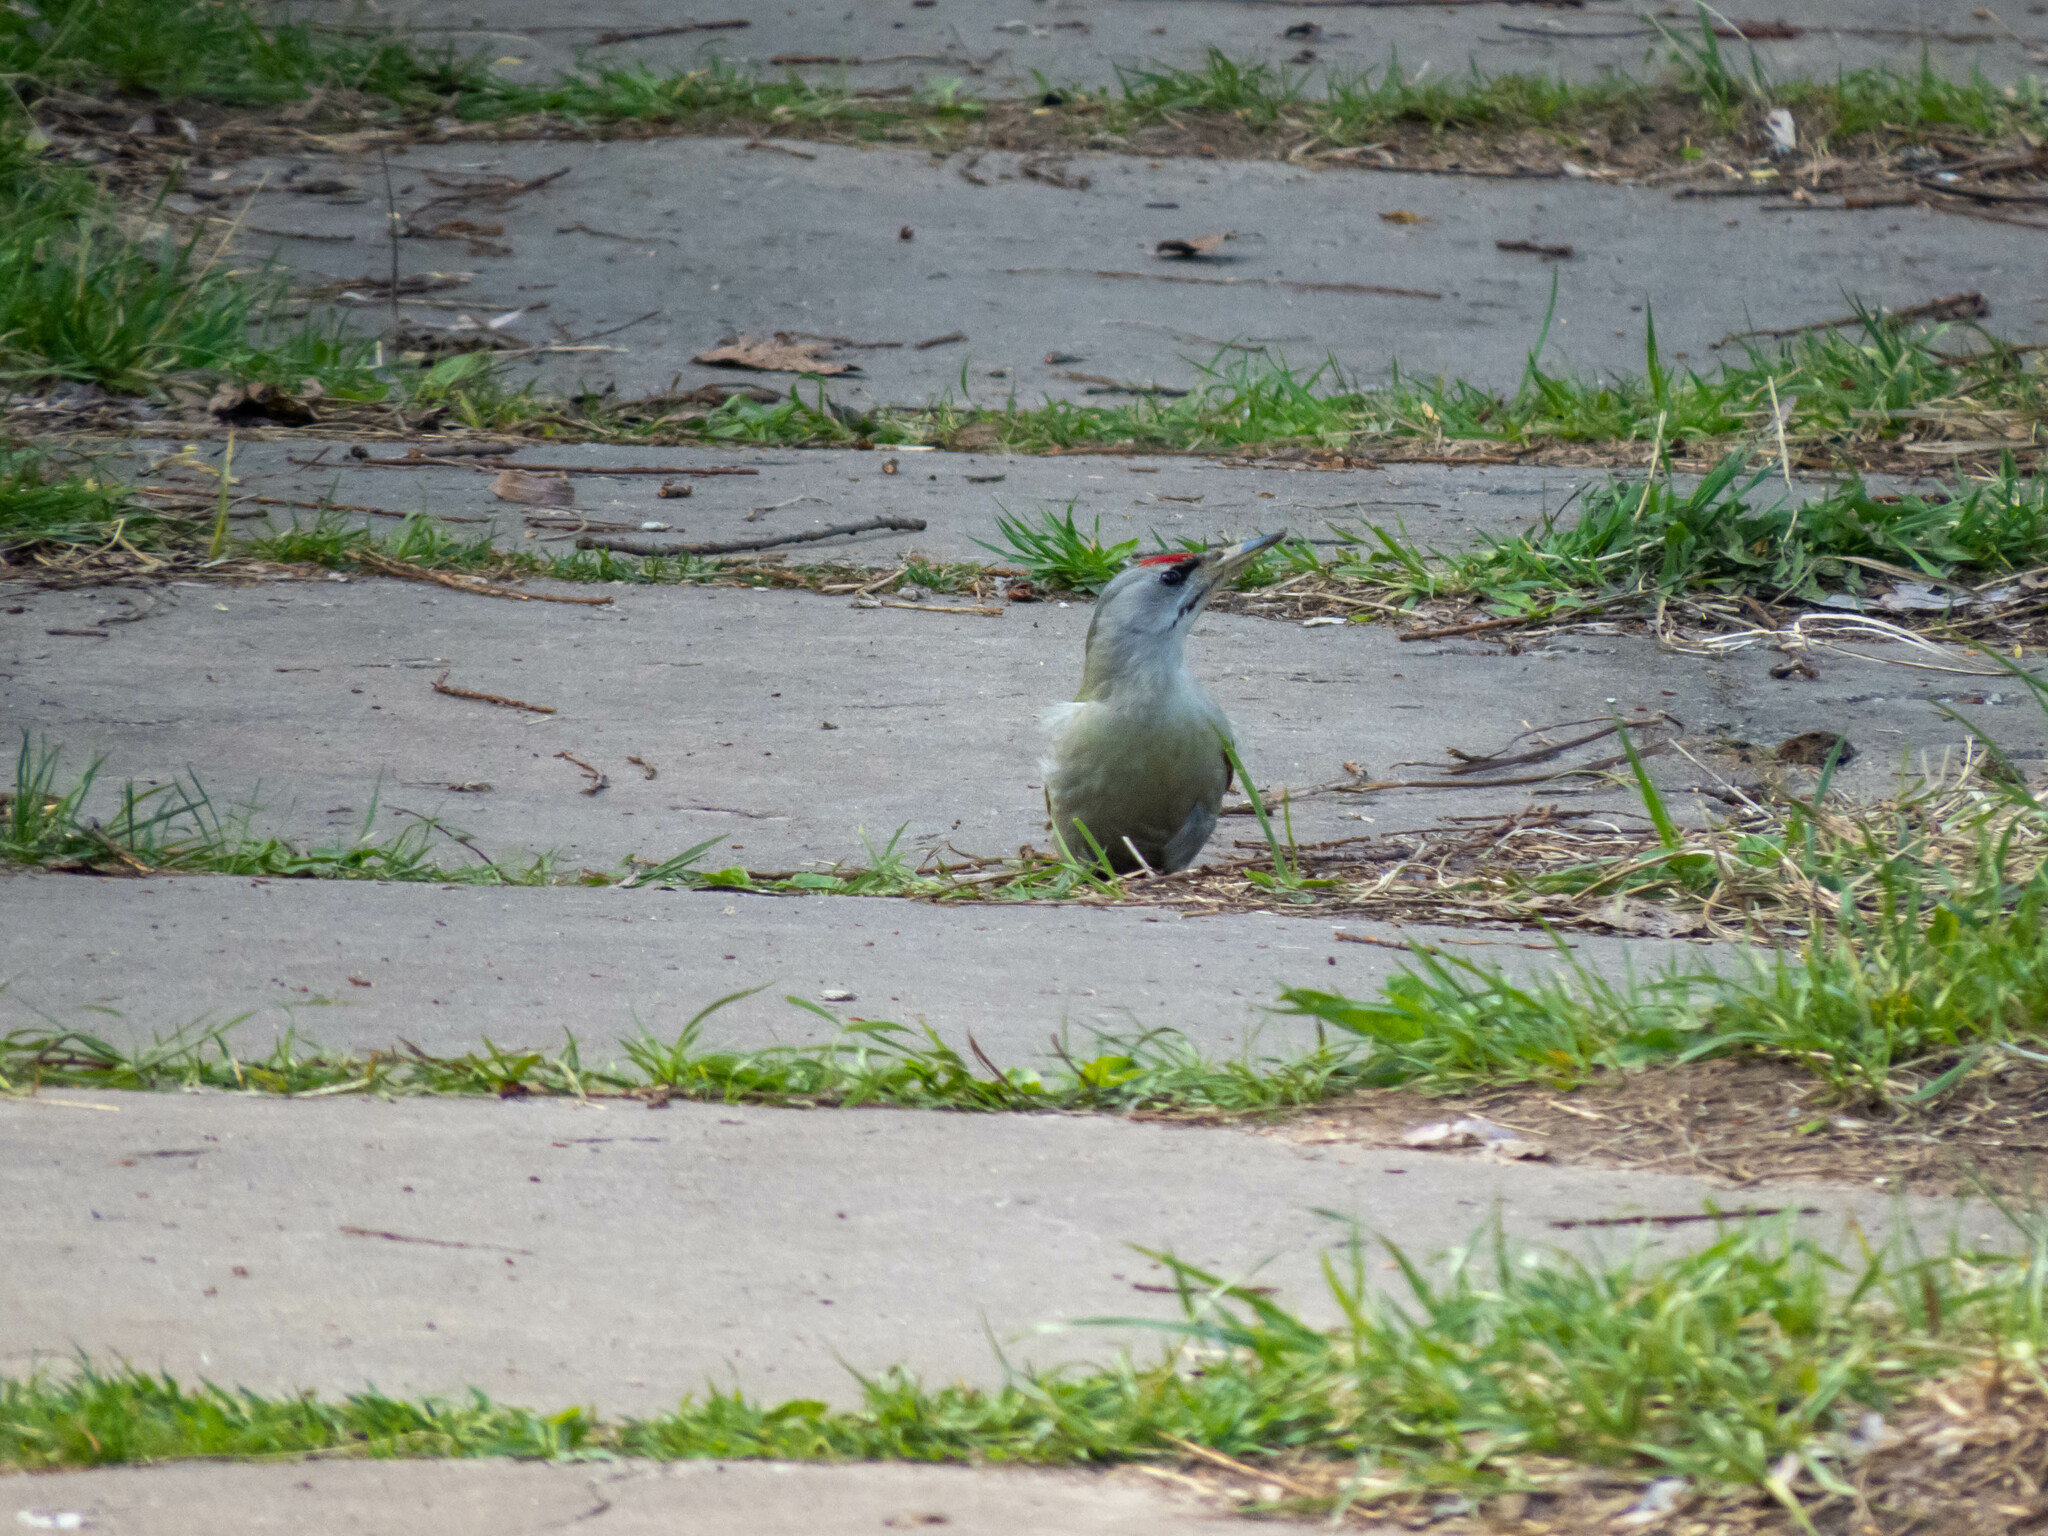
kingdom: Animalia
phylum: Chordata
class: Aves
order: Piciformes
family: Picidae
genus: Picus
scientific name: Picus canus
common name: Grey-headed woodpecker
